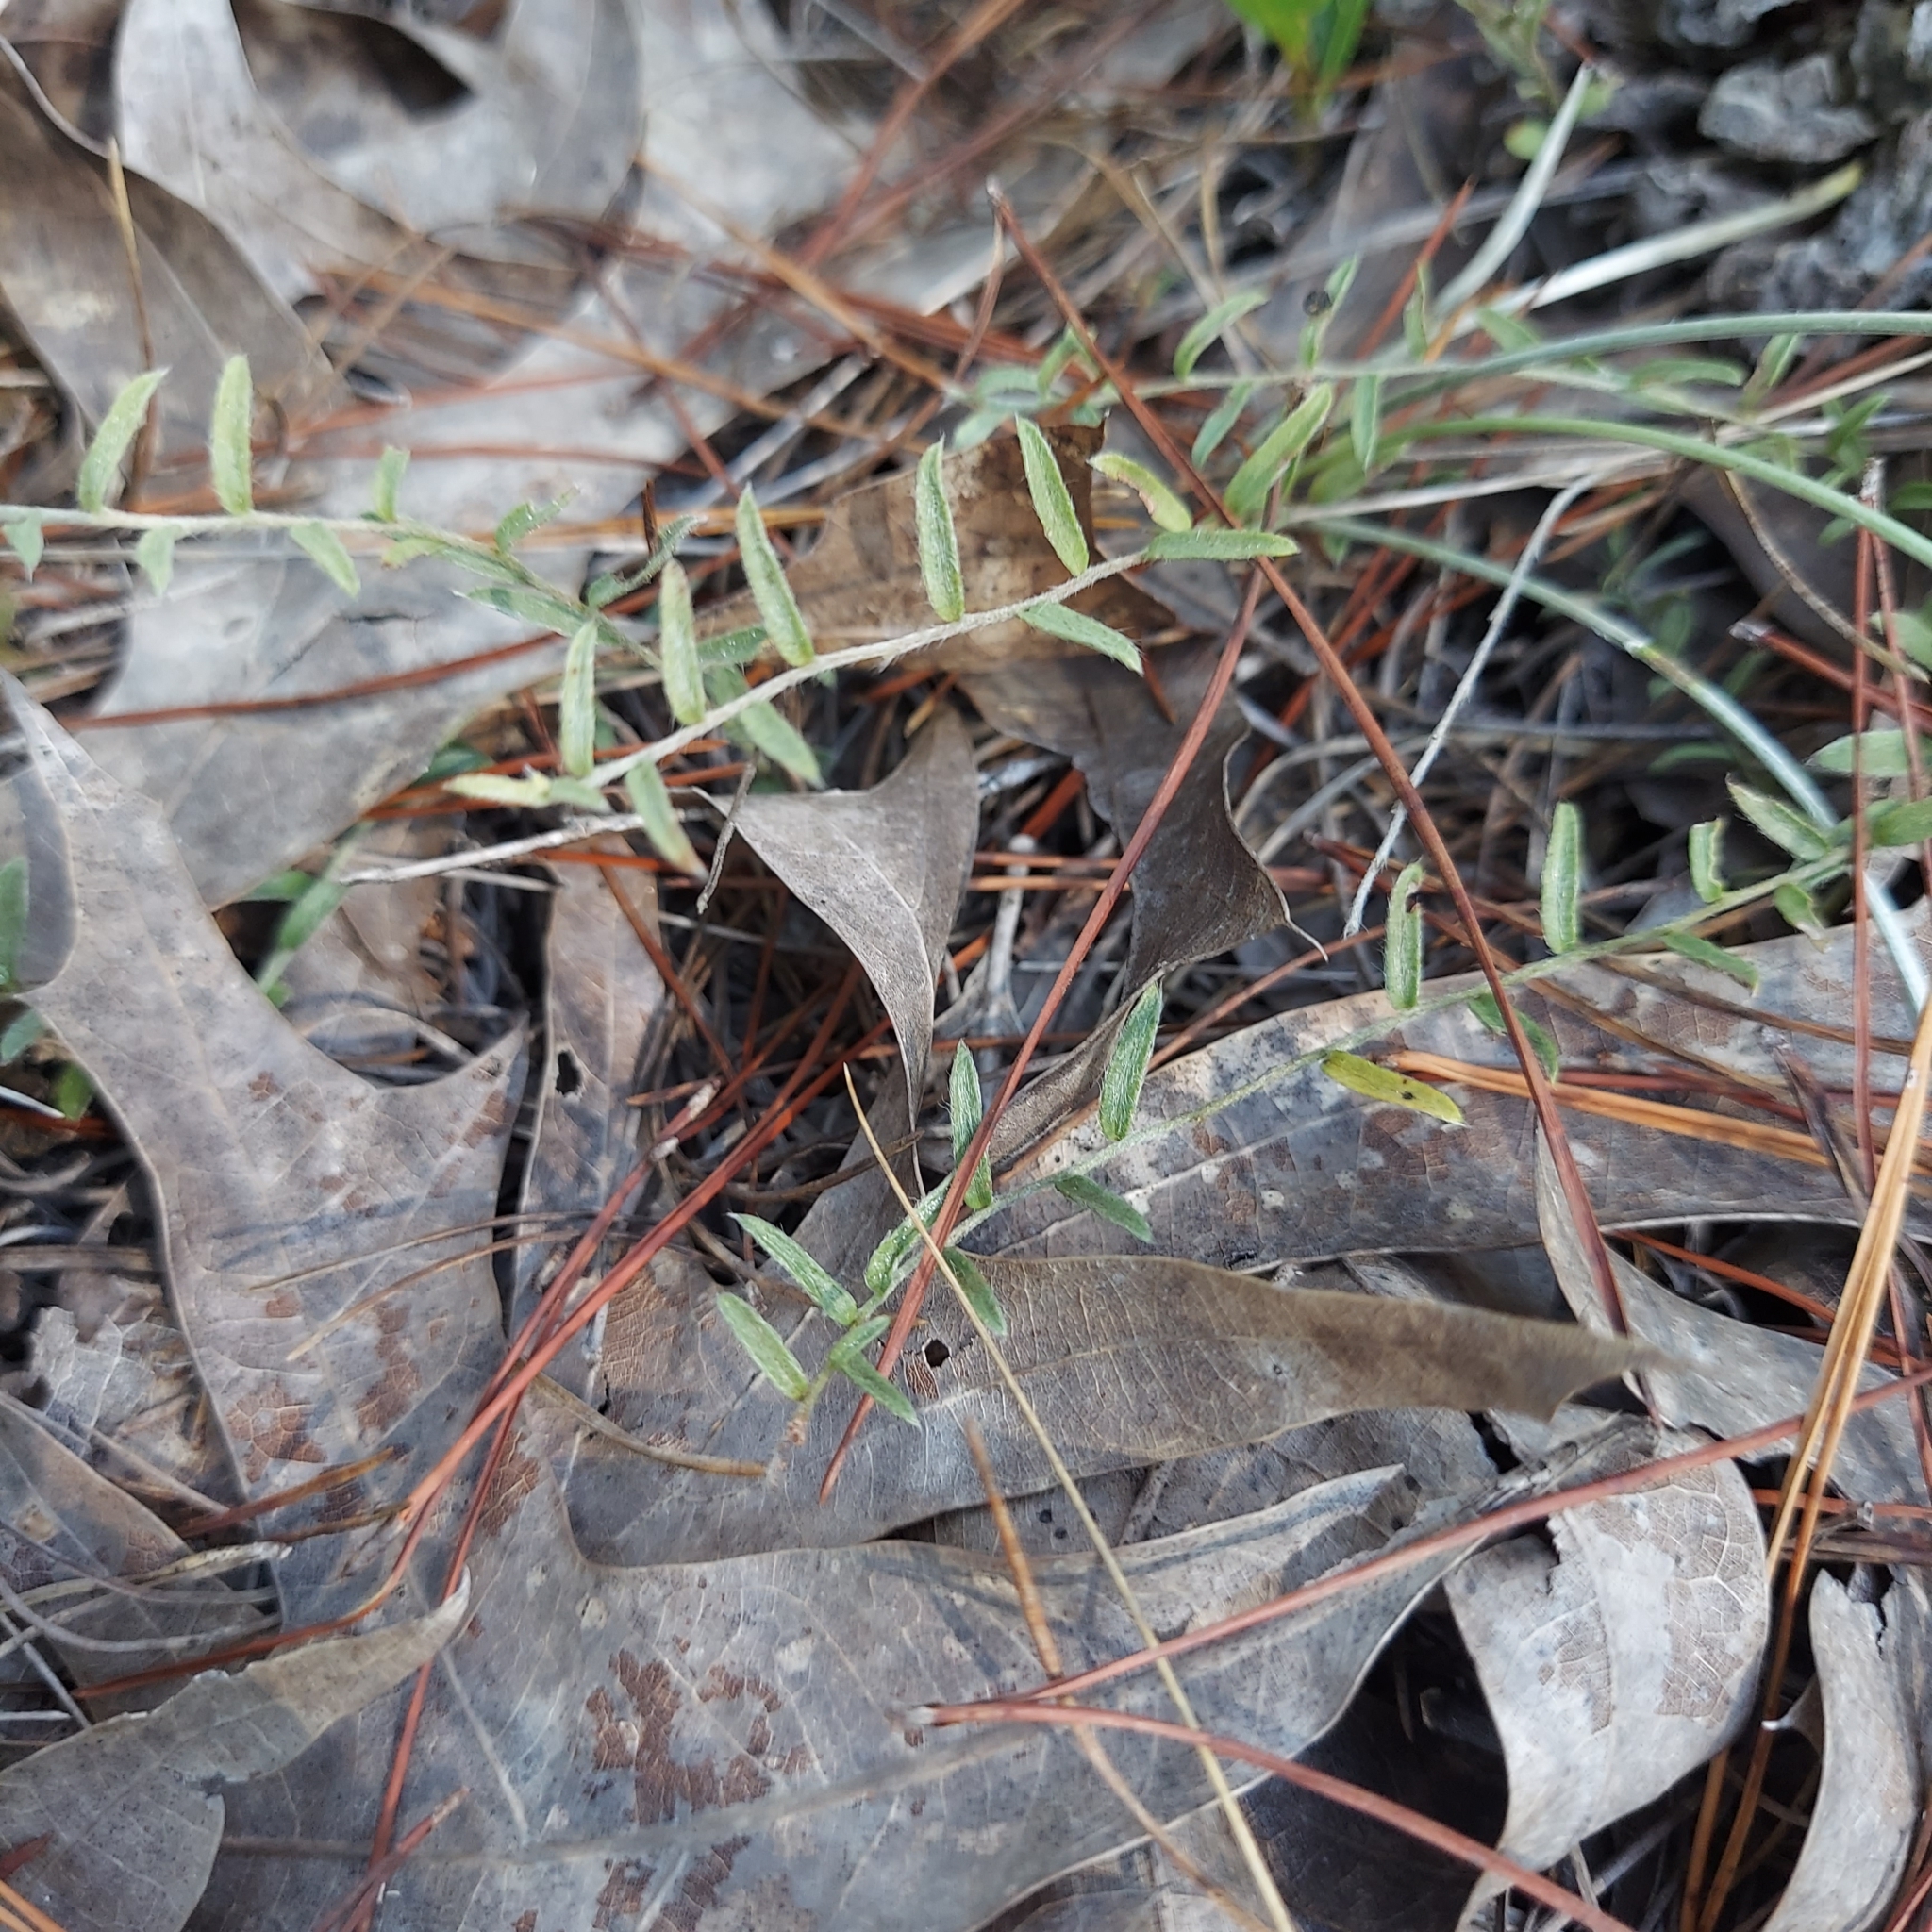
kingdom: Plantae
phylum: Tracheophyta
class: Magnoliopsida
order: Solanales
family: Convolvulaceae
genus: Stylisma
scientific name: Stylisma abdita
